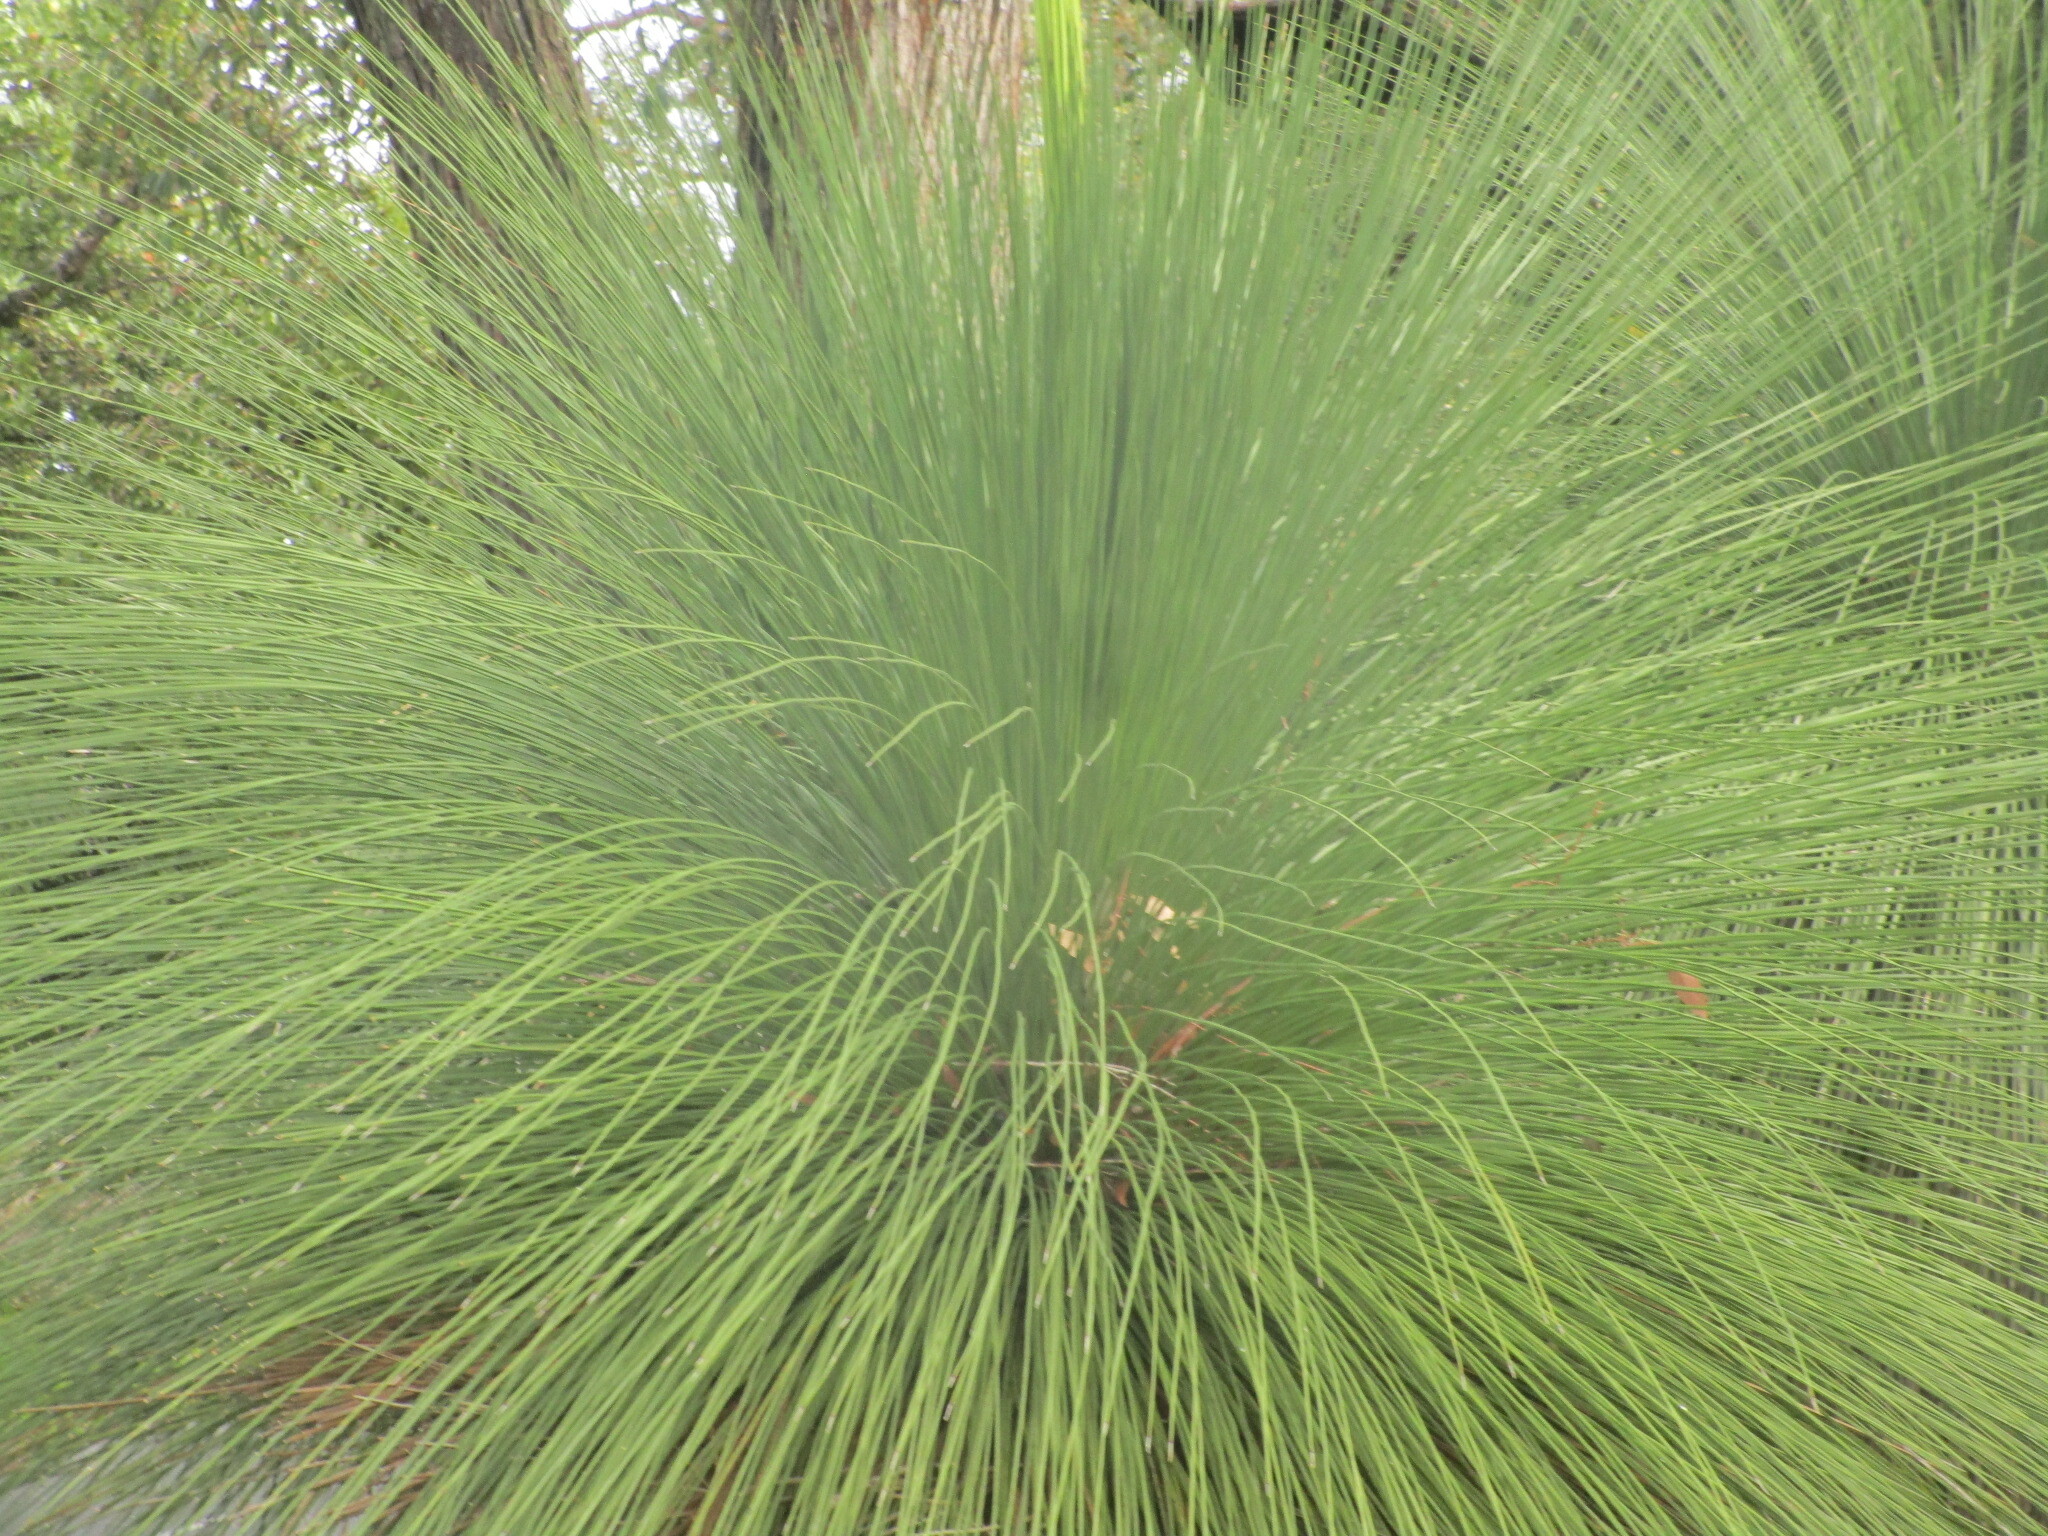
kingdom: Plantae
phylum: Tracheophyta
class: Liliopsida
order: Asparagales
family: Asphodelaceae
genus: Xanthorrhoea
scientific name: Xanthorrhoea preissii
